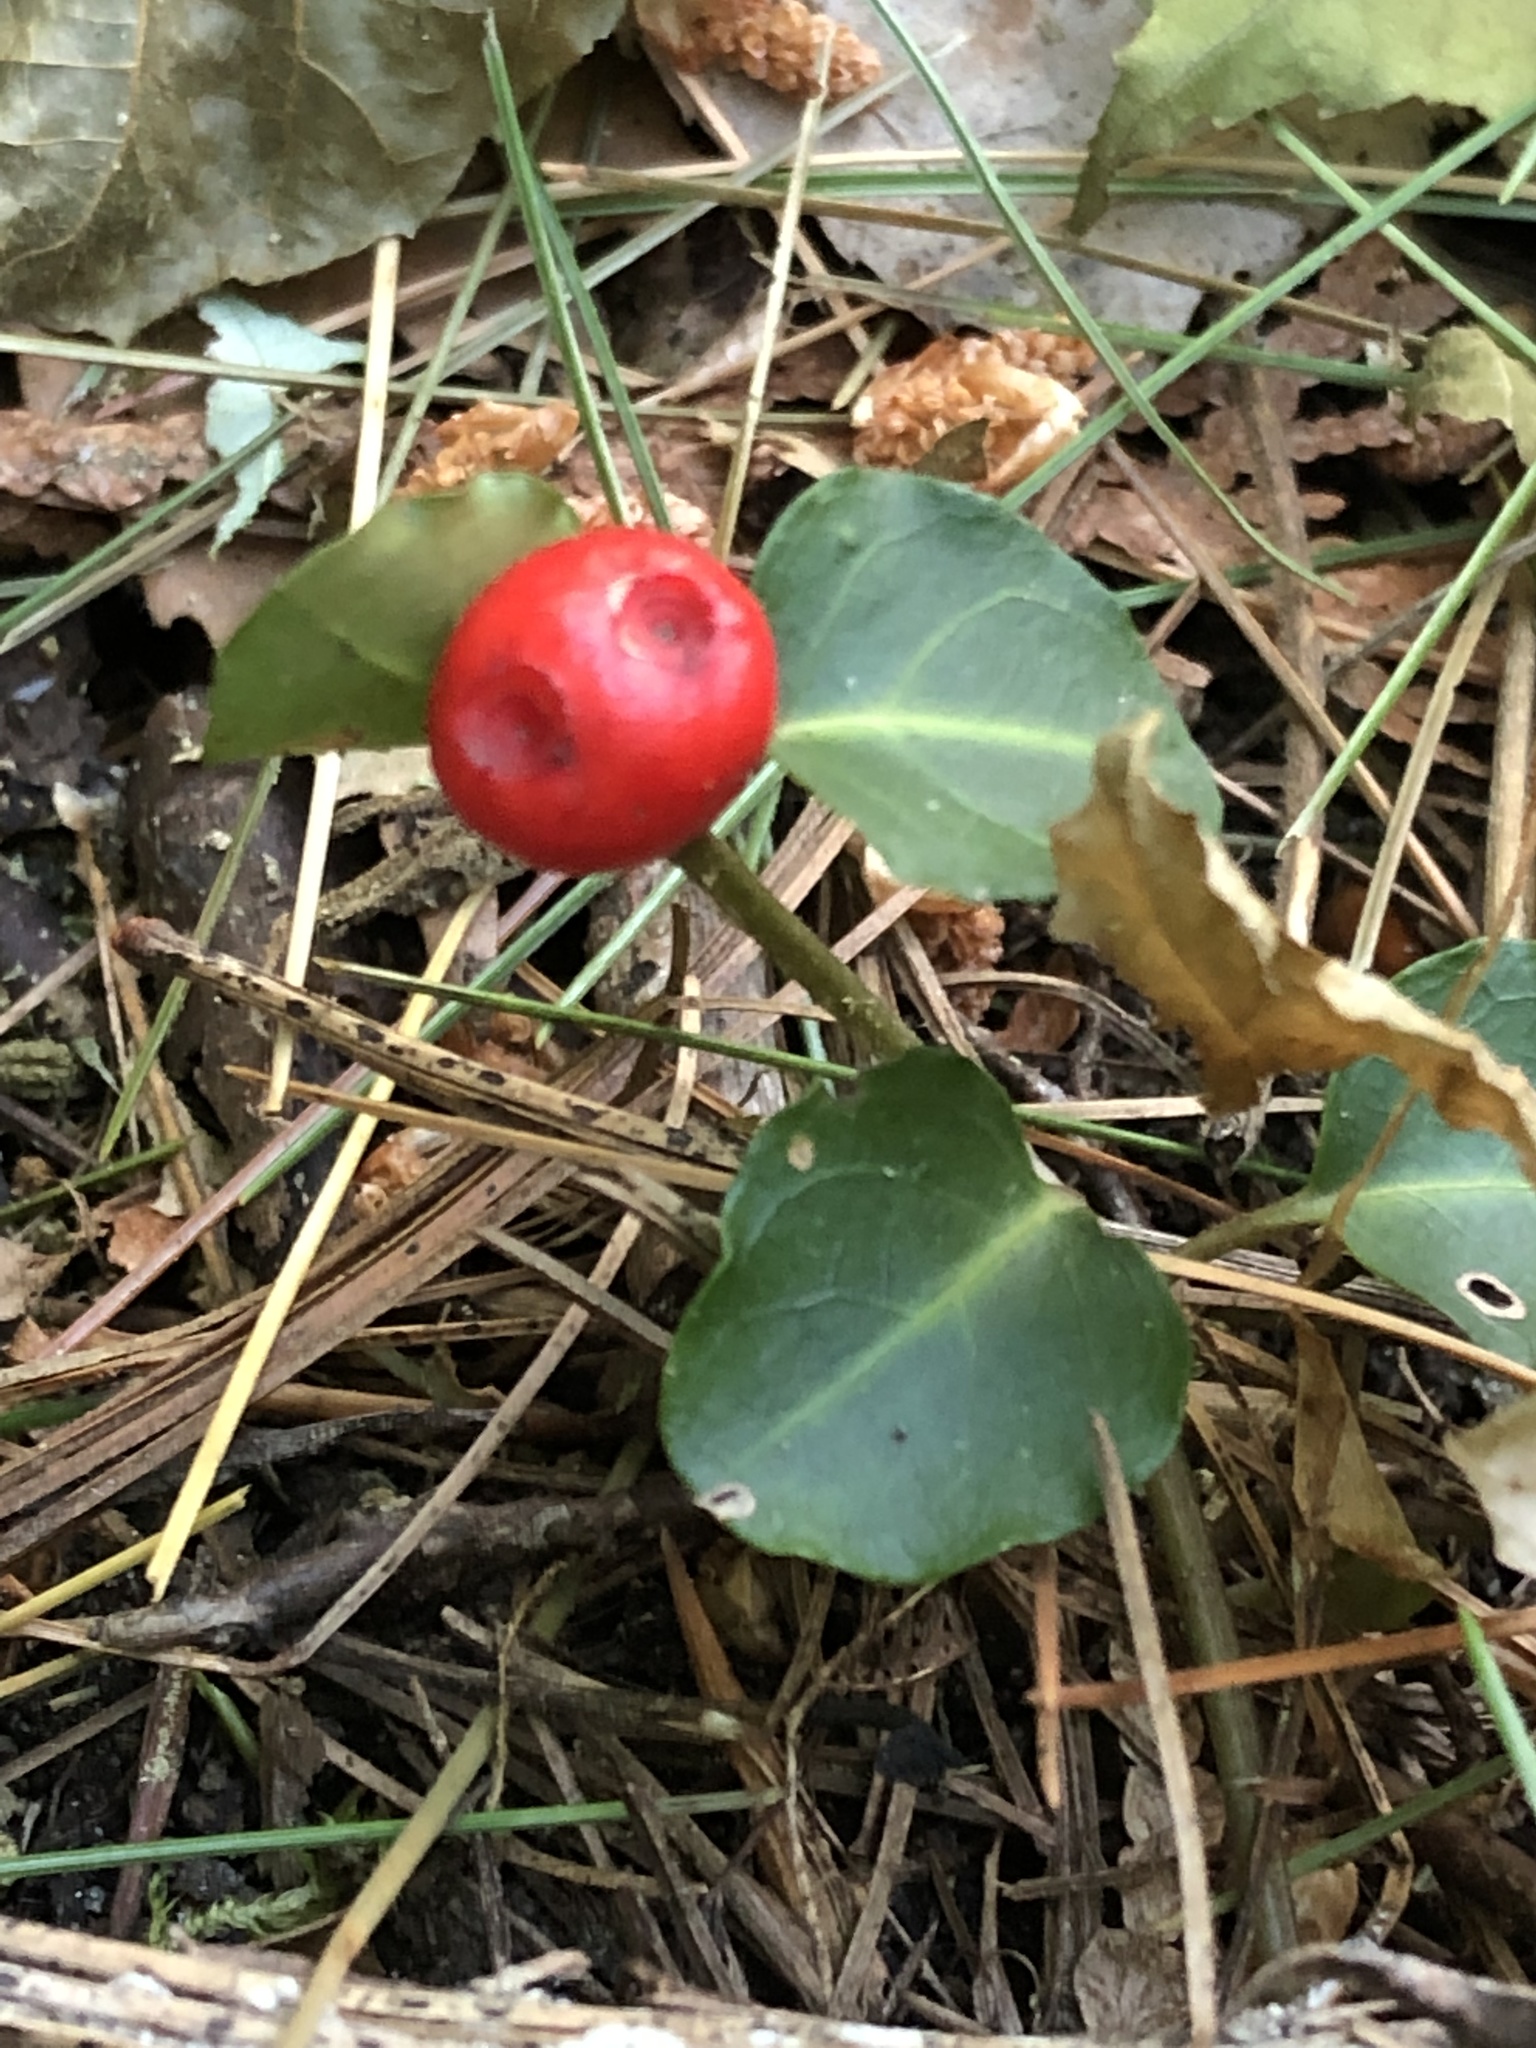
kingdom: Plantae
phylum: Tracheophyta
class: Magnoliopsida
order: Gentianales
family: Rubiaceae
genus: Mitchella
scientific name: Mitchella repens
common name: Partridge-berry
